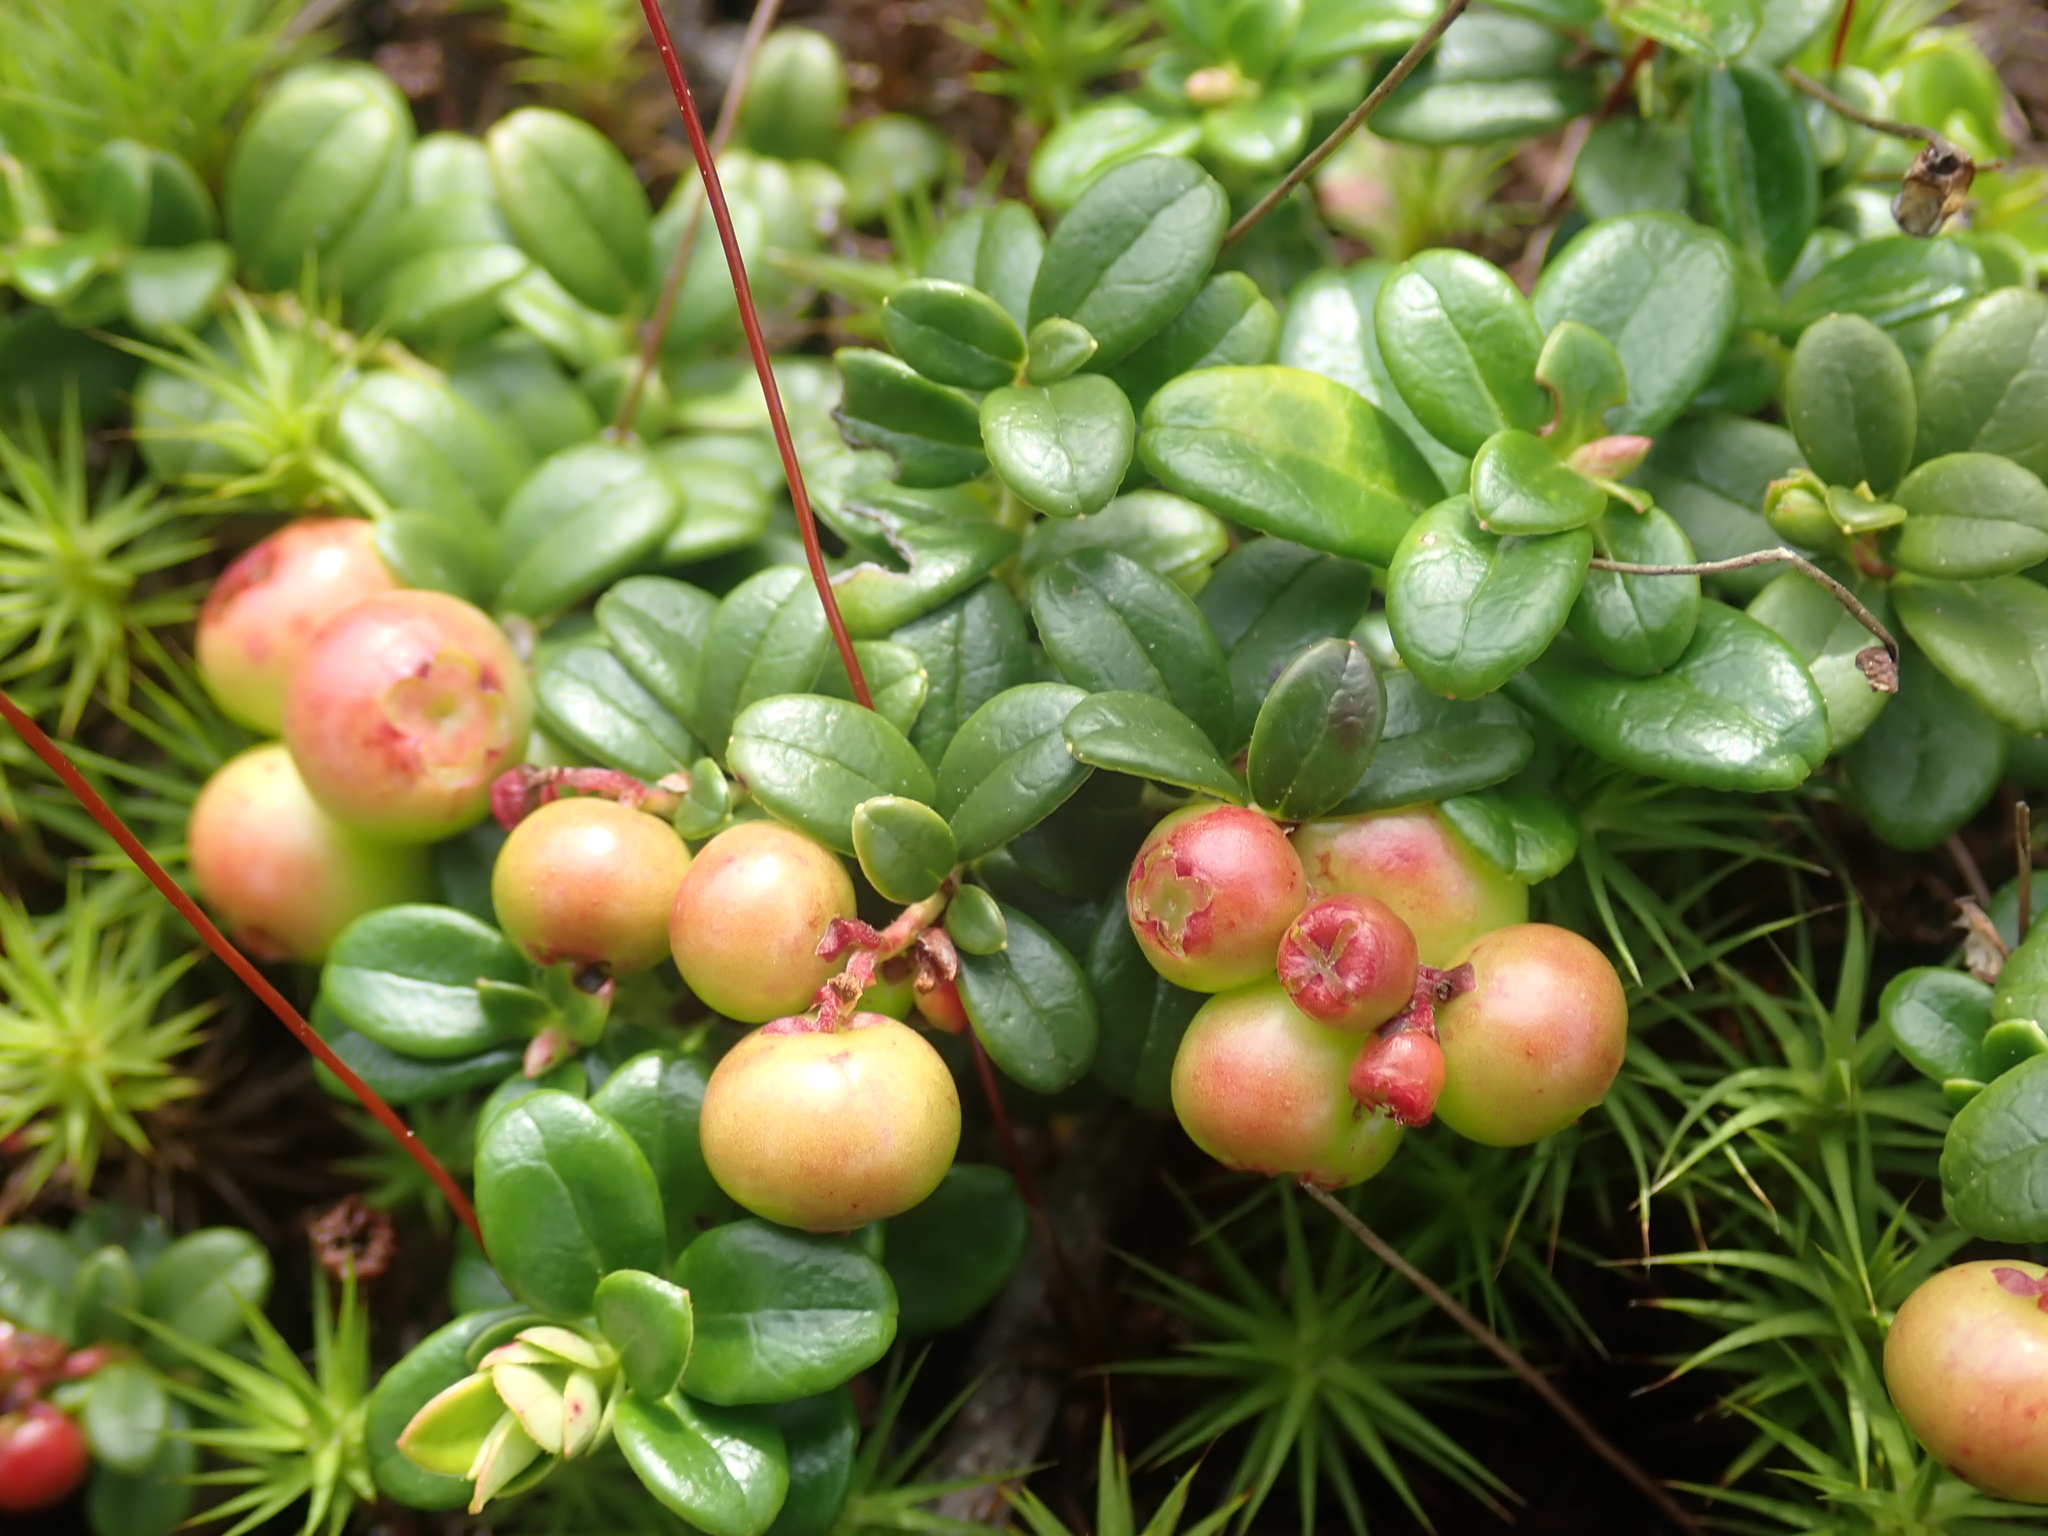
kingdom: Plantae
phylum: Tracheophyta
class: Magnoliopsida
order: Ericales
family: Ericaceae
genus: Vaccinium
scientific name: Vaccinium vitis-idaea
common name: Cowberry
